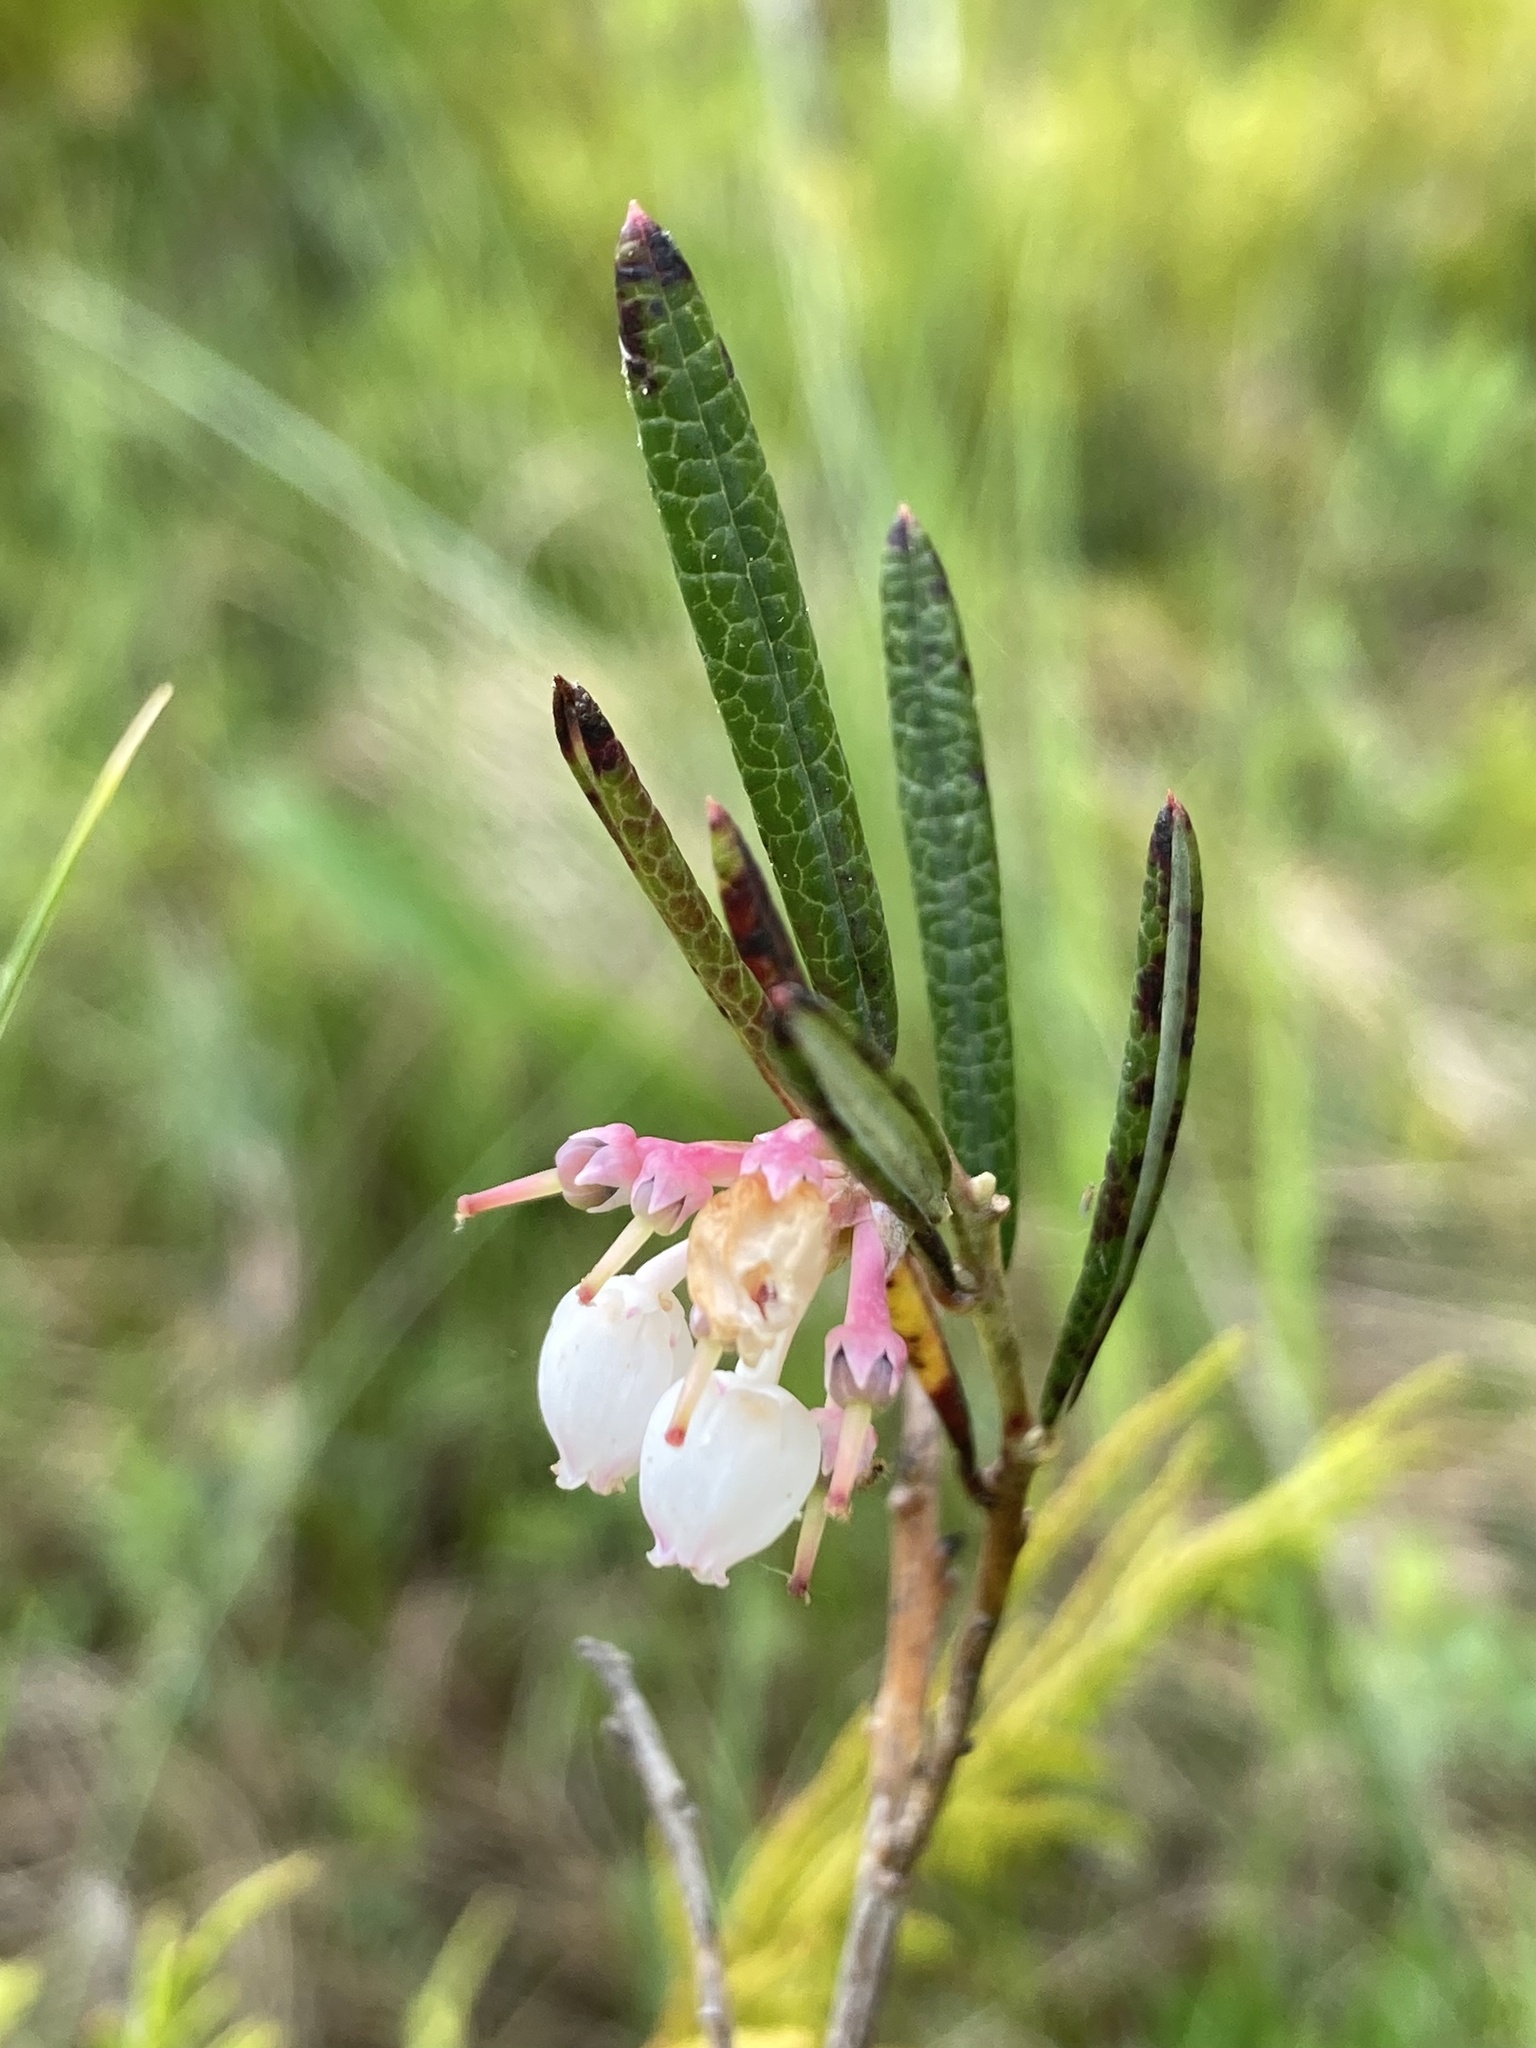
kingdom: Plantae
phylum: Tracheophyta
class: Magnoliopsida
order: Ericales
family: Ericaceae
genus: Andromeda
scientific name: Andromeda polifolia
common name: Bog-rosemary
